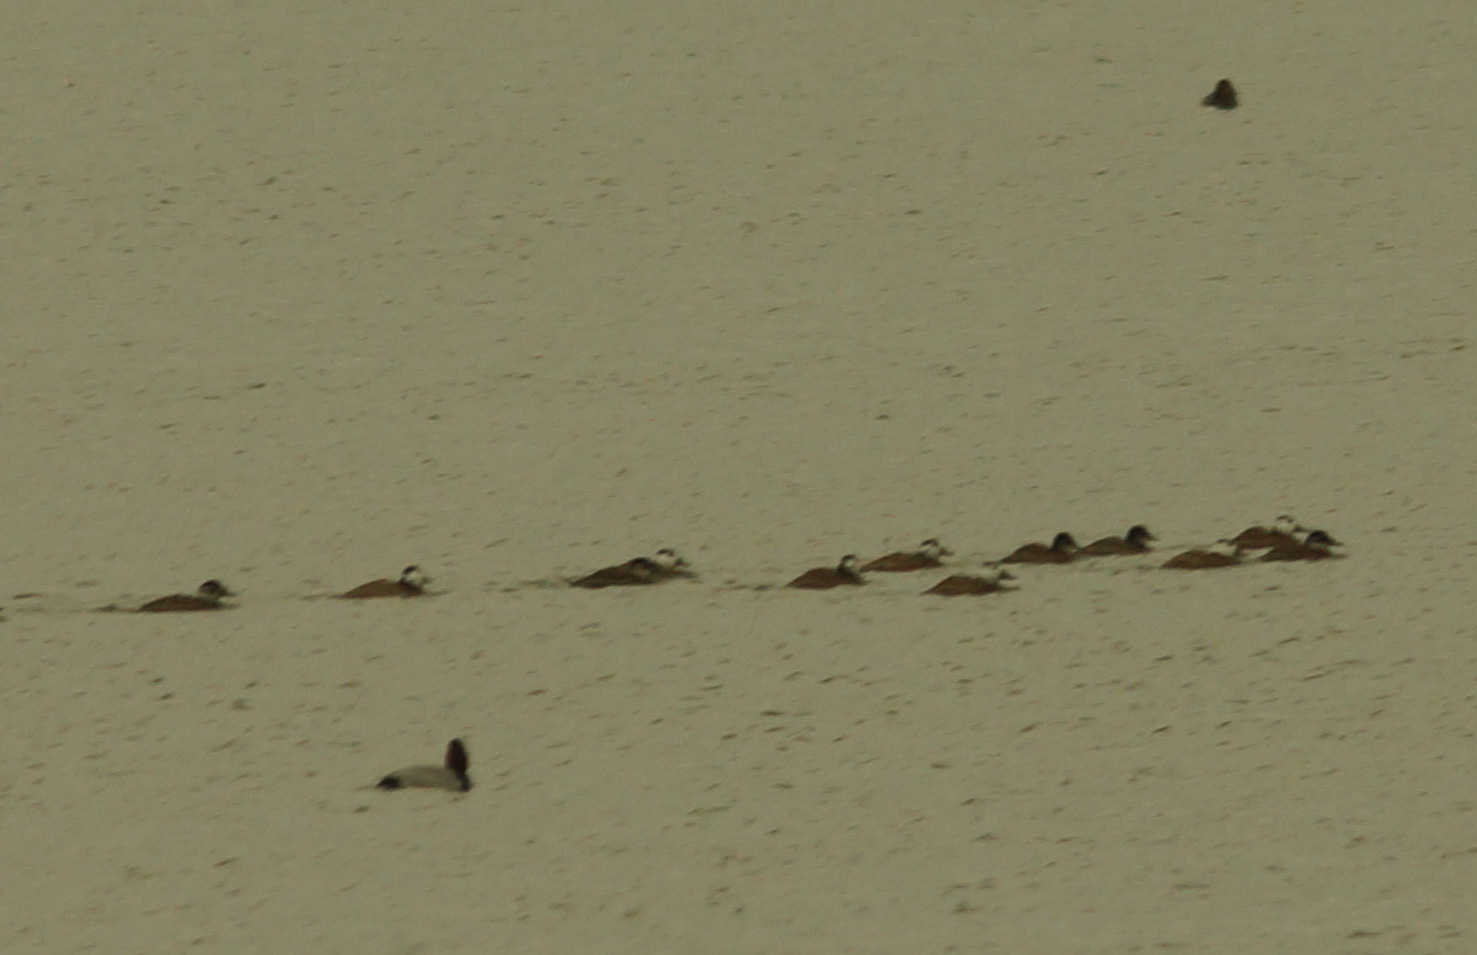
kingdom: Animalia
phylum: Chordata
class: Aves
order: Anseriformes
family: Anatidae
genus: Oxyura
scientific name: Oxyura leucocephala
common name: White-headed duck
